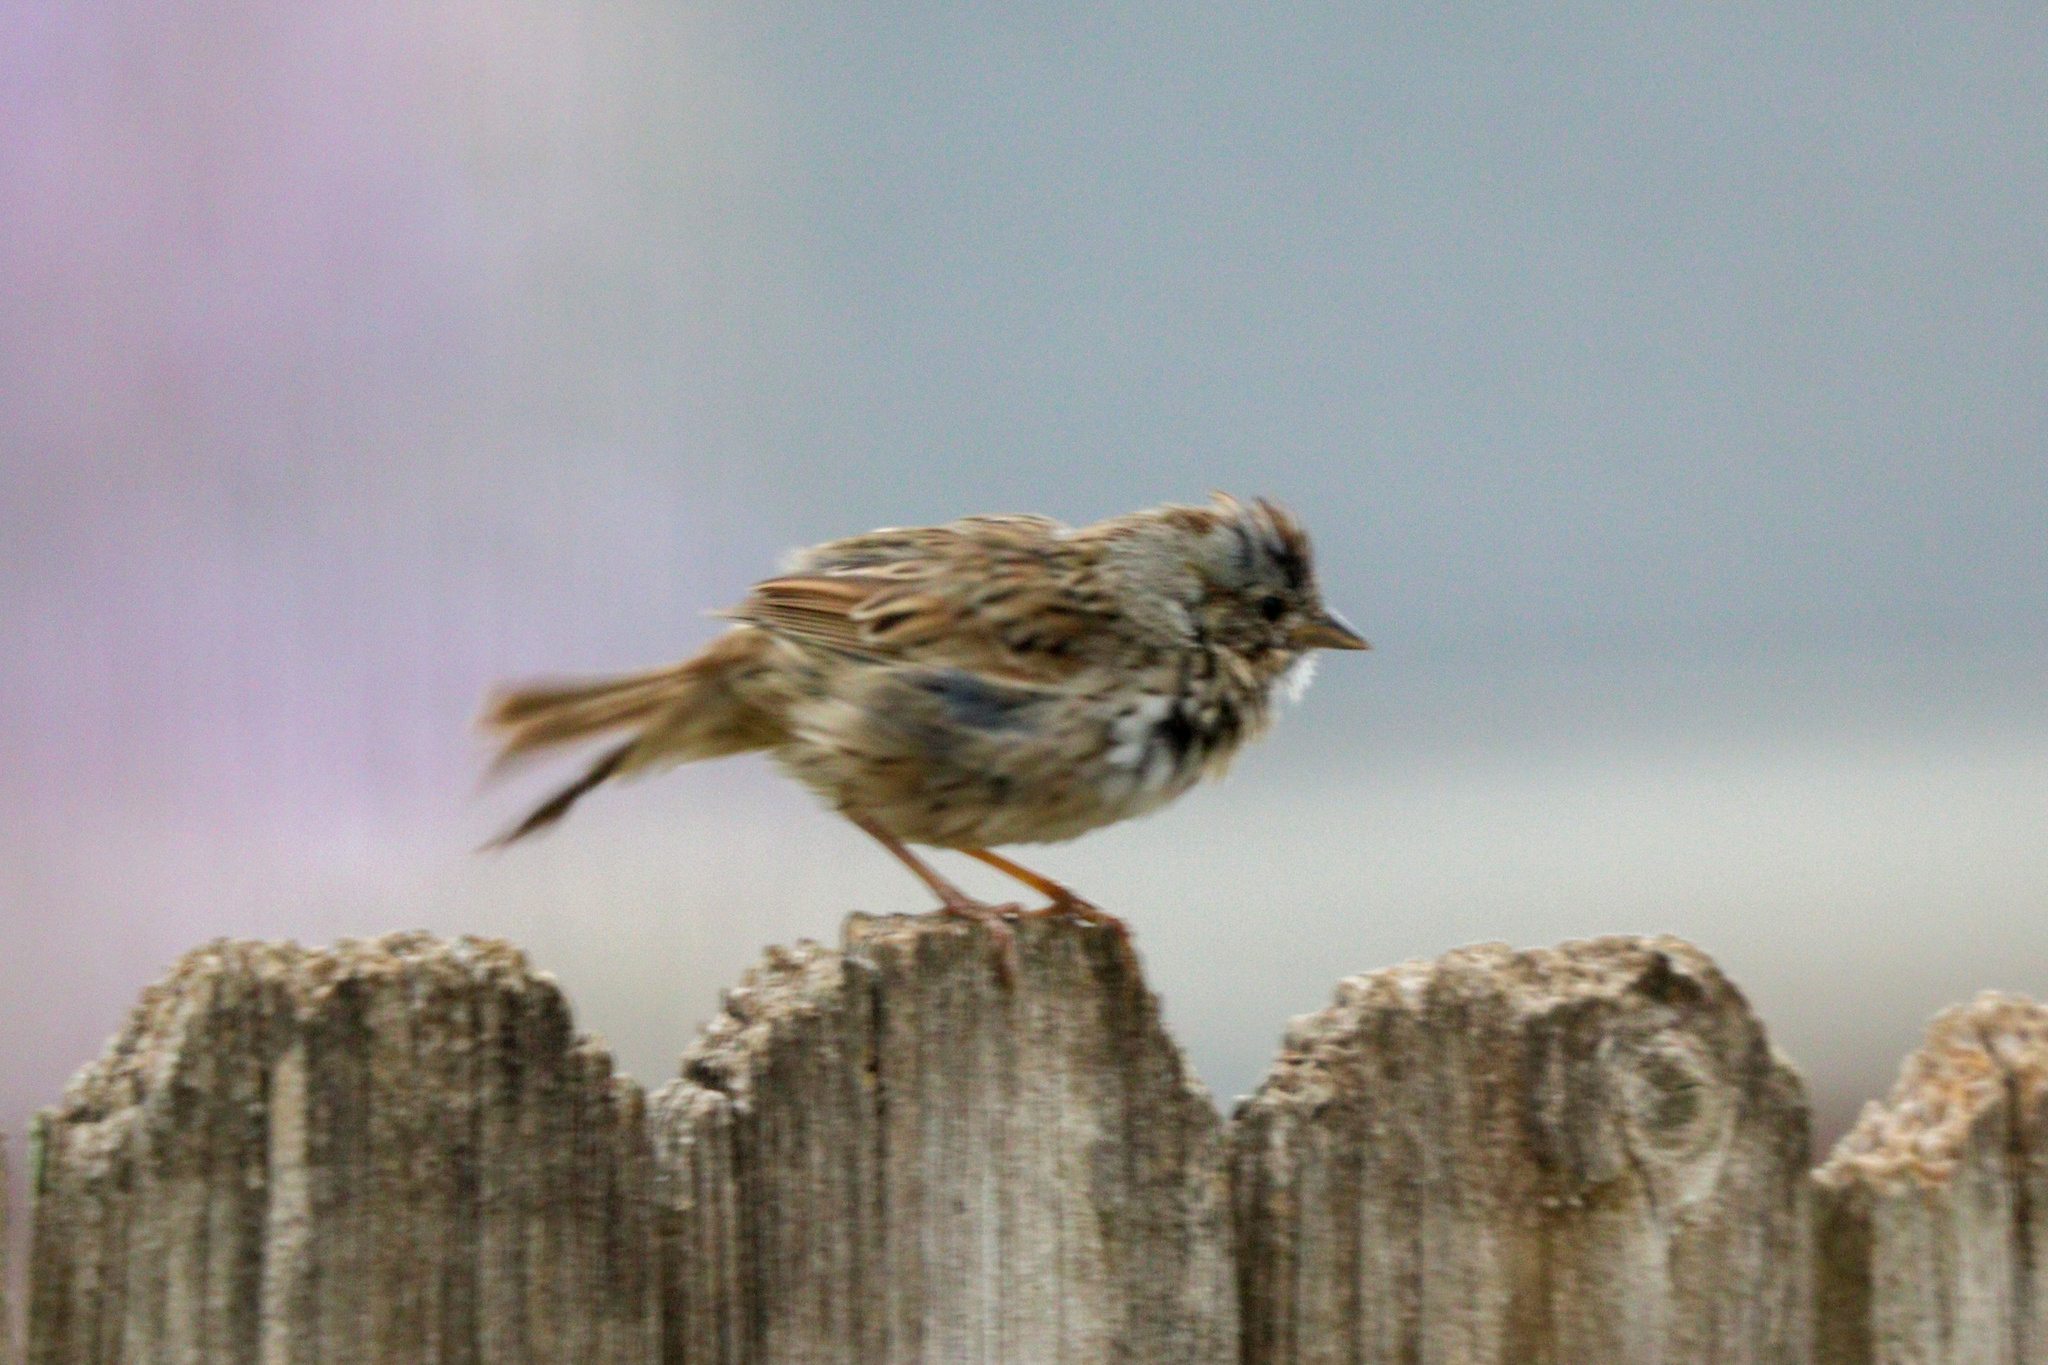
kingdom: Animalia
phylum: Chordata
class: Aves
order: Passeriformes
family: Passerellidae
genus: Melospiza
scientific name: Melospiza lincolnii
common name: Lincoln's sparrow
